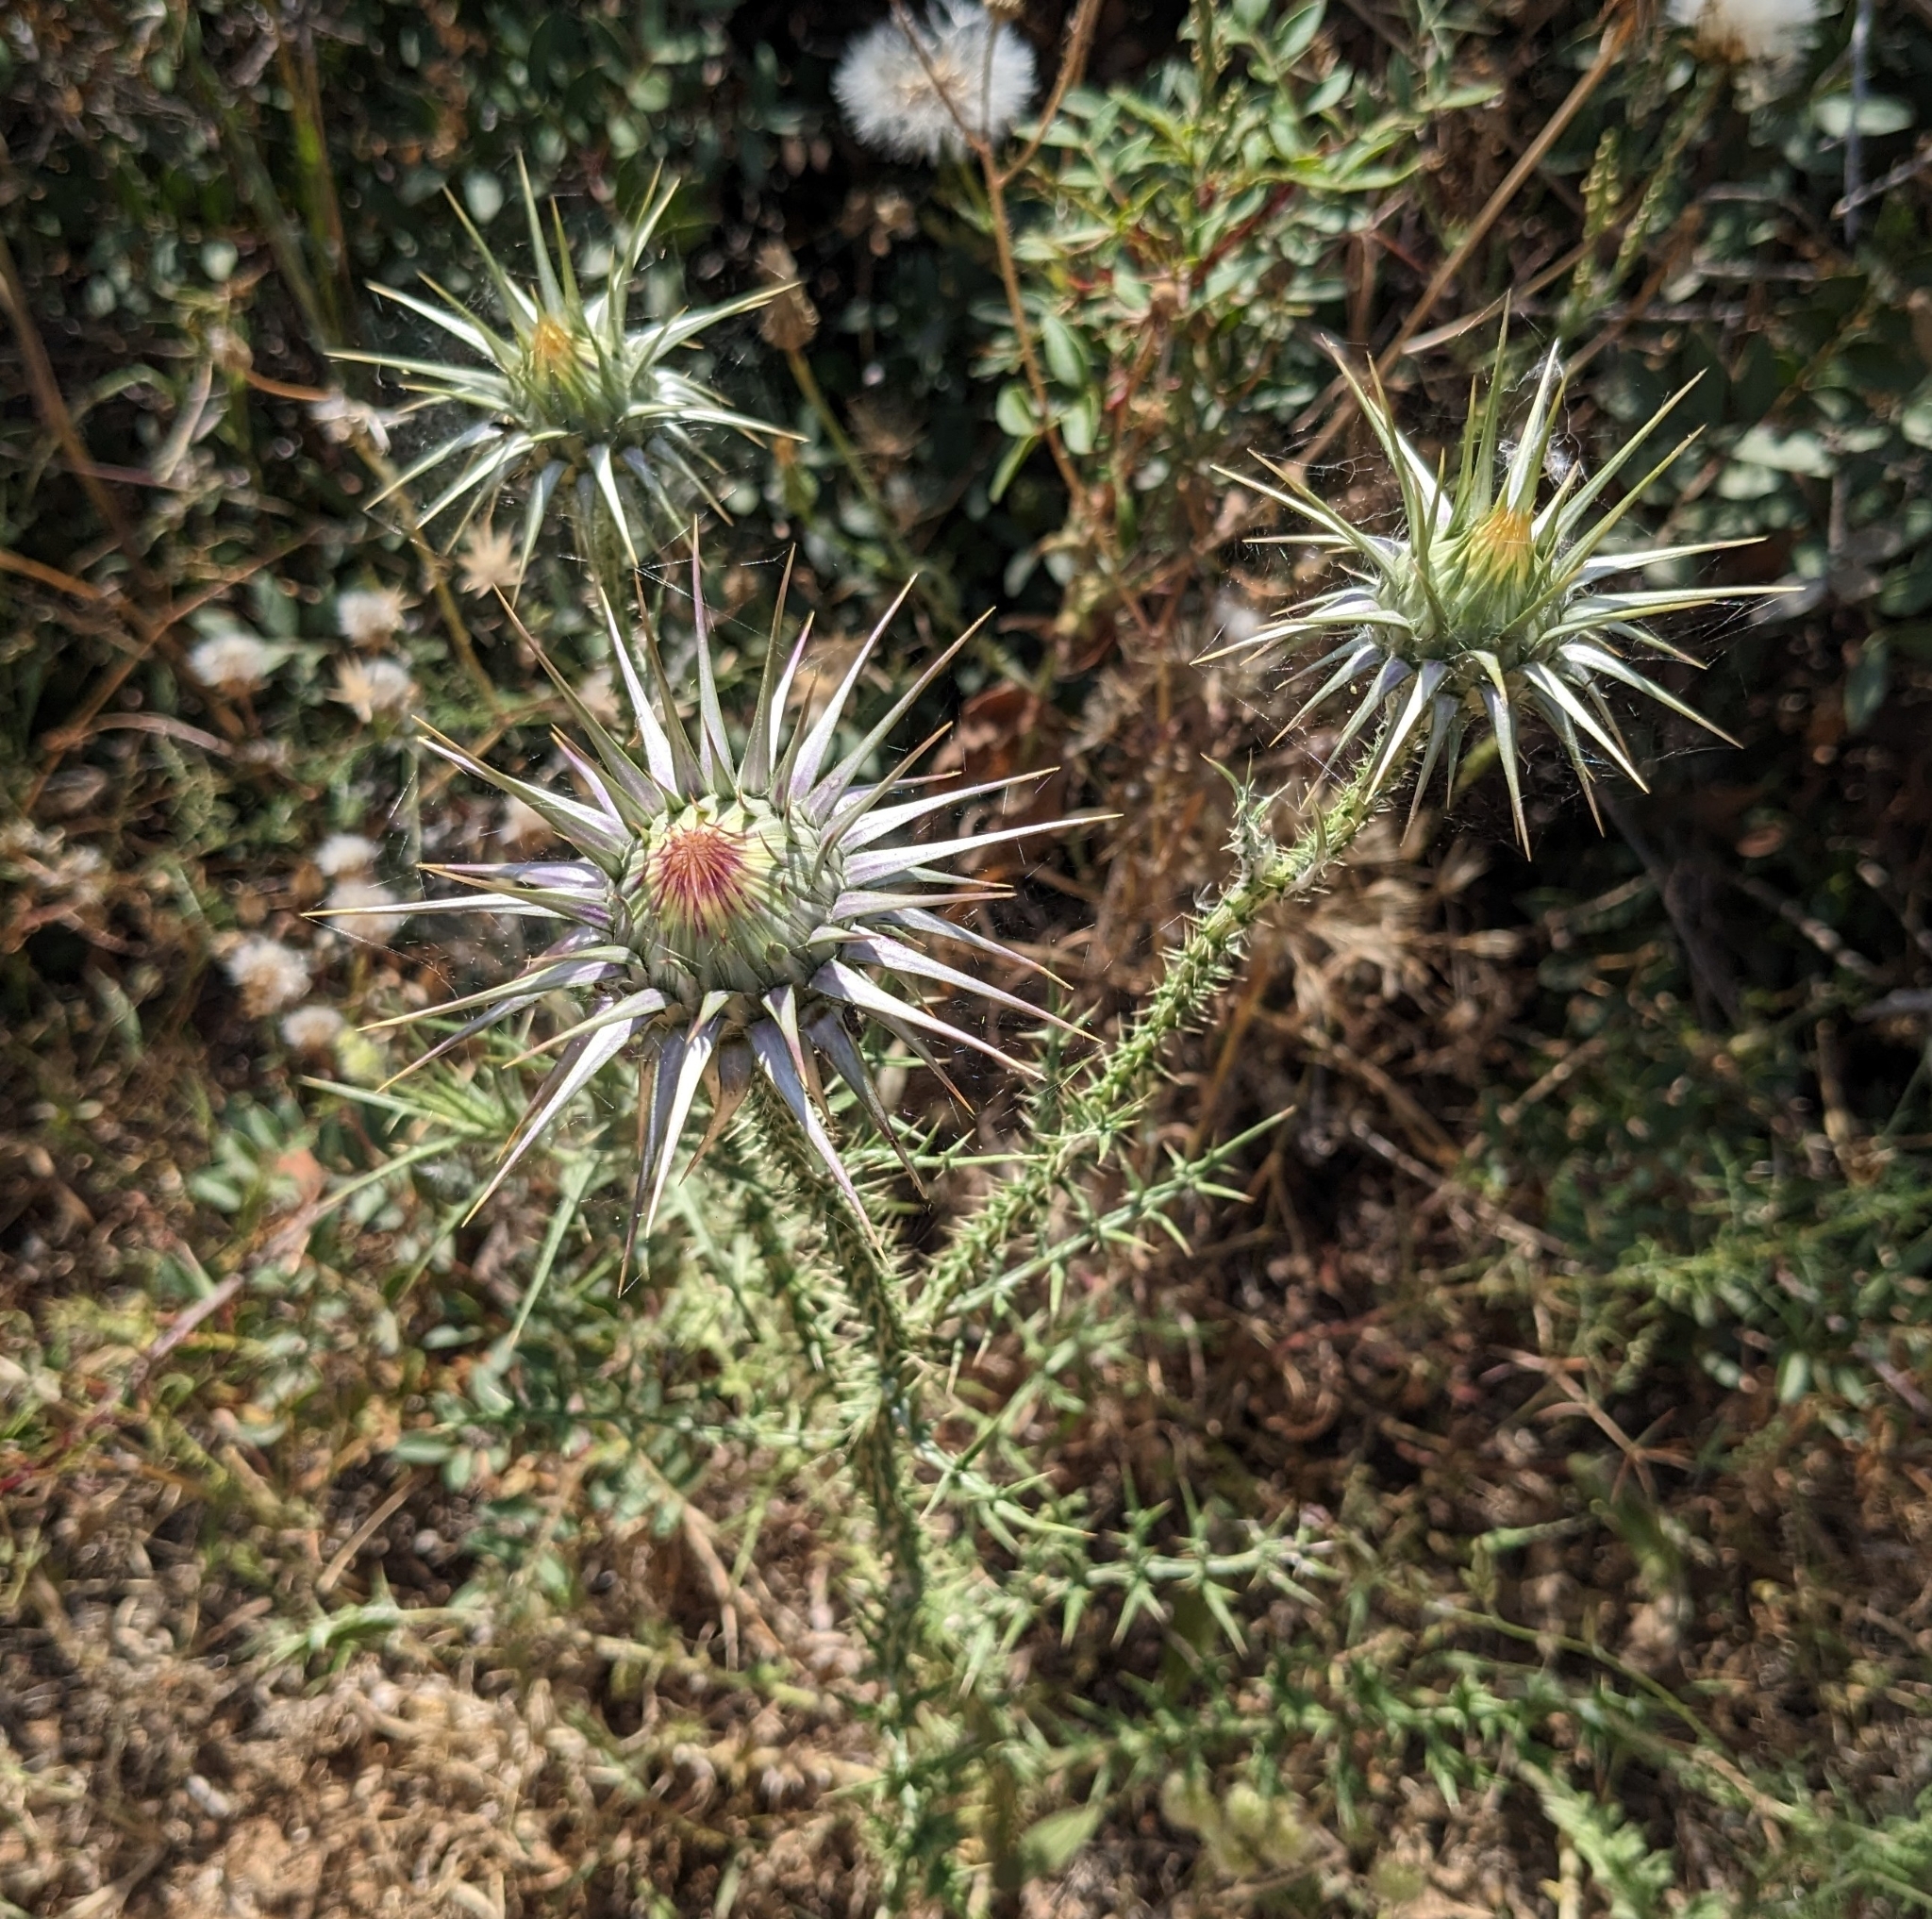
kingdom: Plantae
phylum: Tracheophyta
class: Magnoliopsida
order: Asterales
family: Asteraceae
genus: Onopordum
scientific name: Onopordum cyprium
